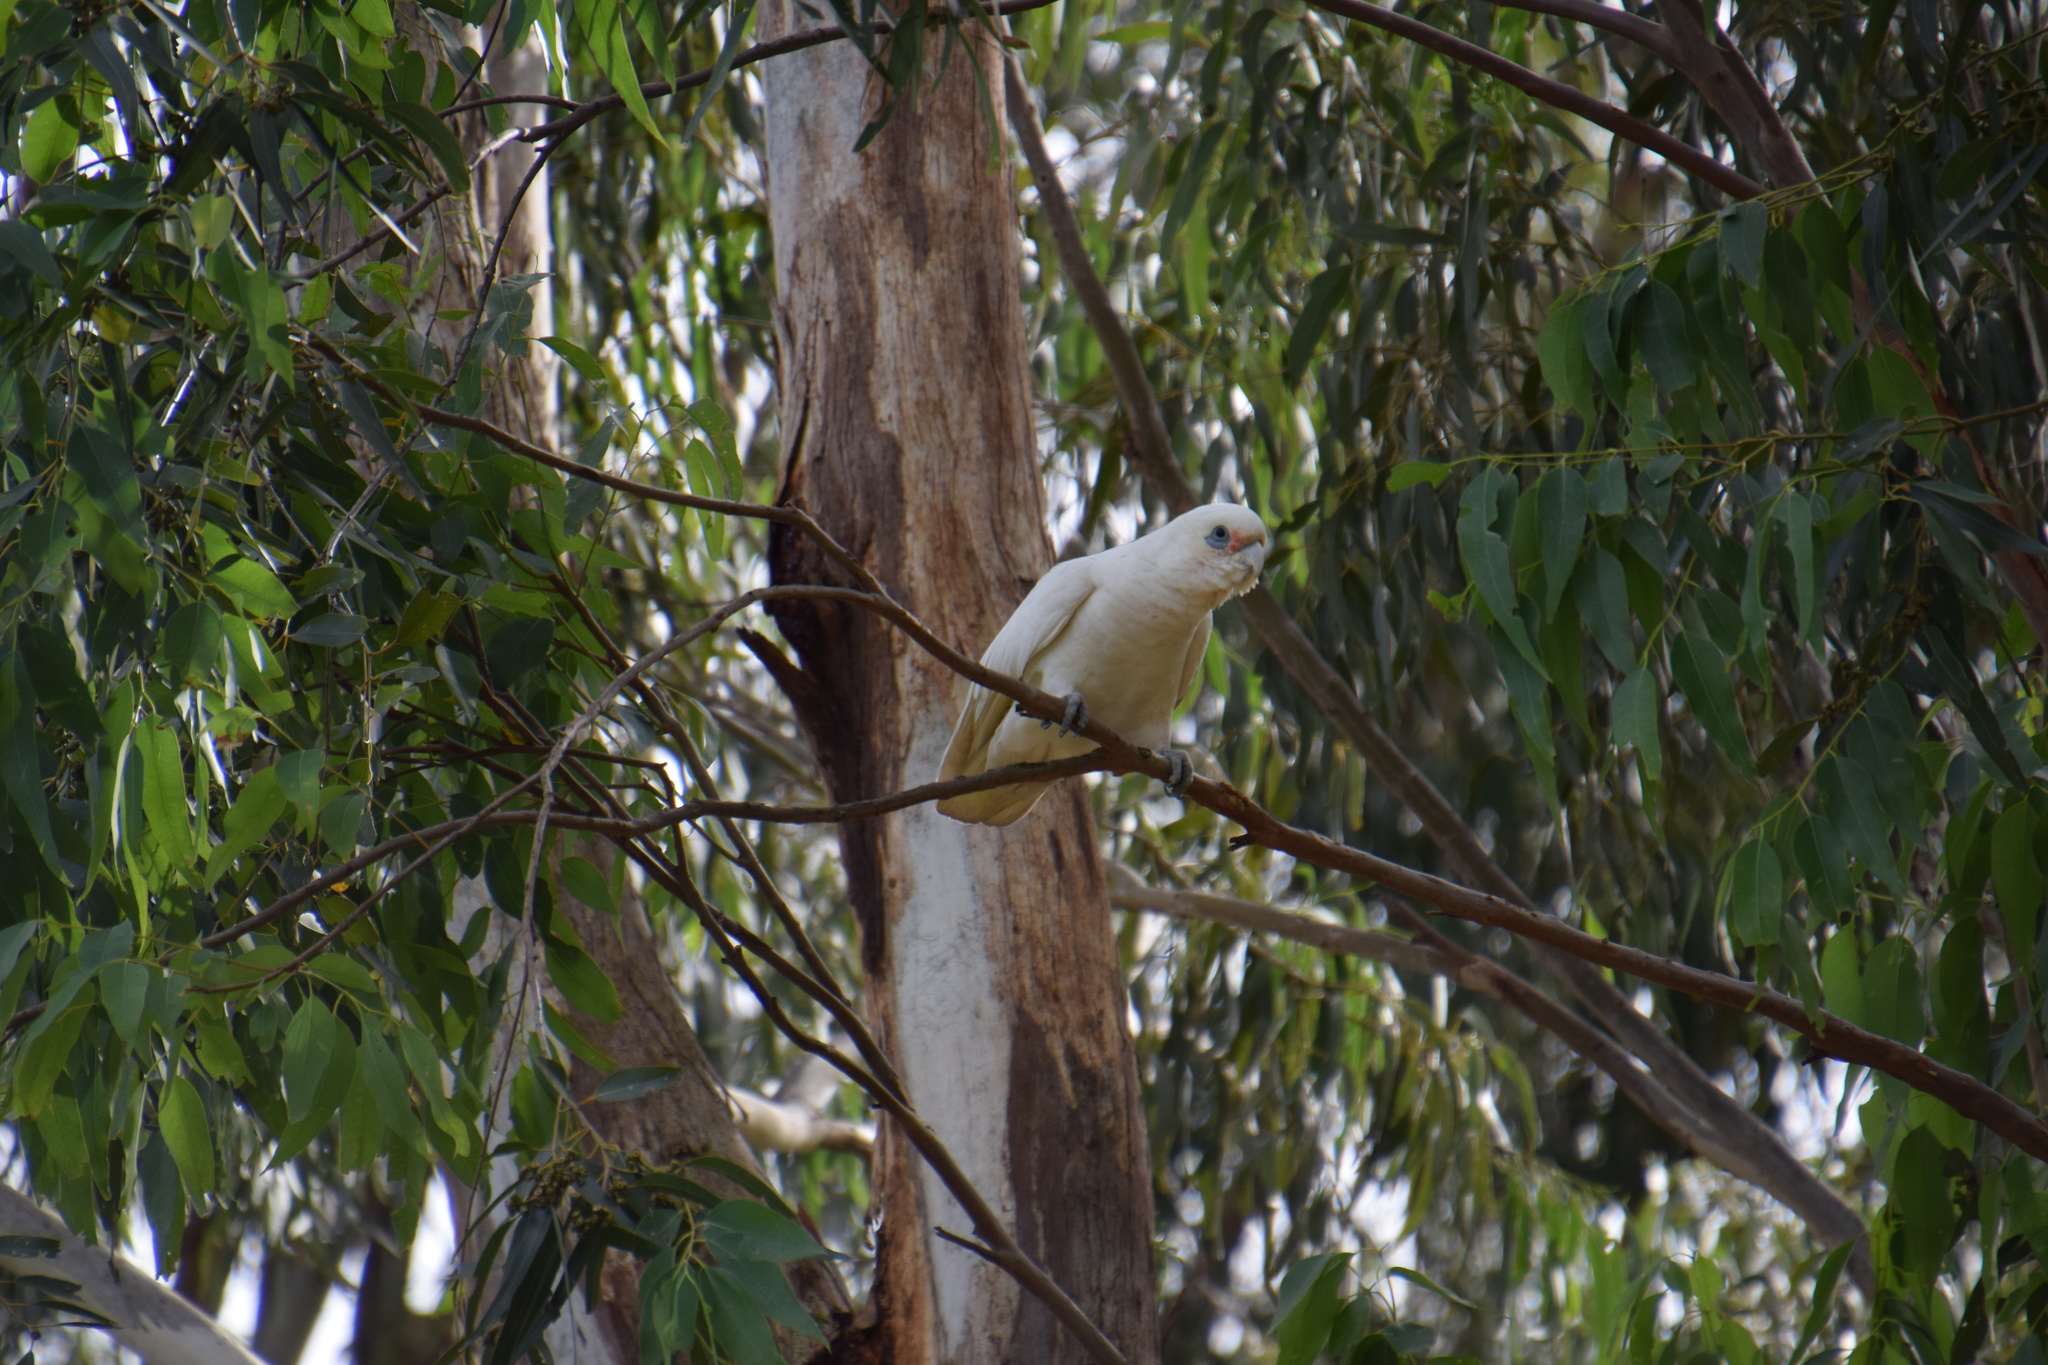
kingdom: Animalia
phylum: Chordata
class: Aves
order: Psittaciformes
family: Psittacidae
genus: Cacatua
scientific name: Cacatua sanguinea
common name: Little corella
